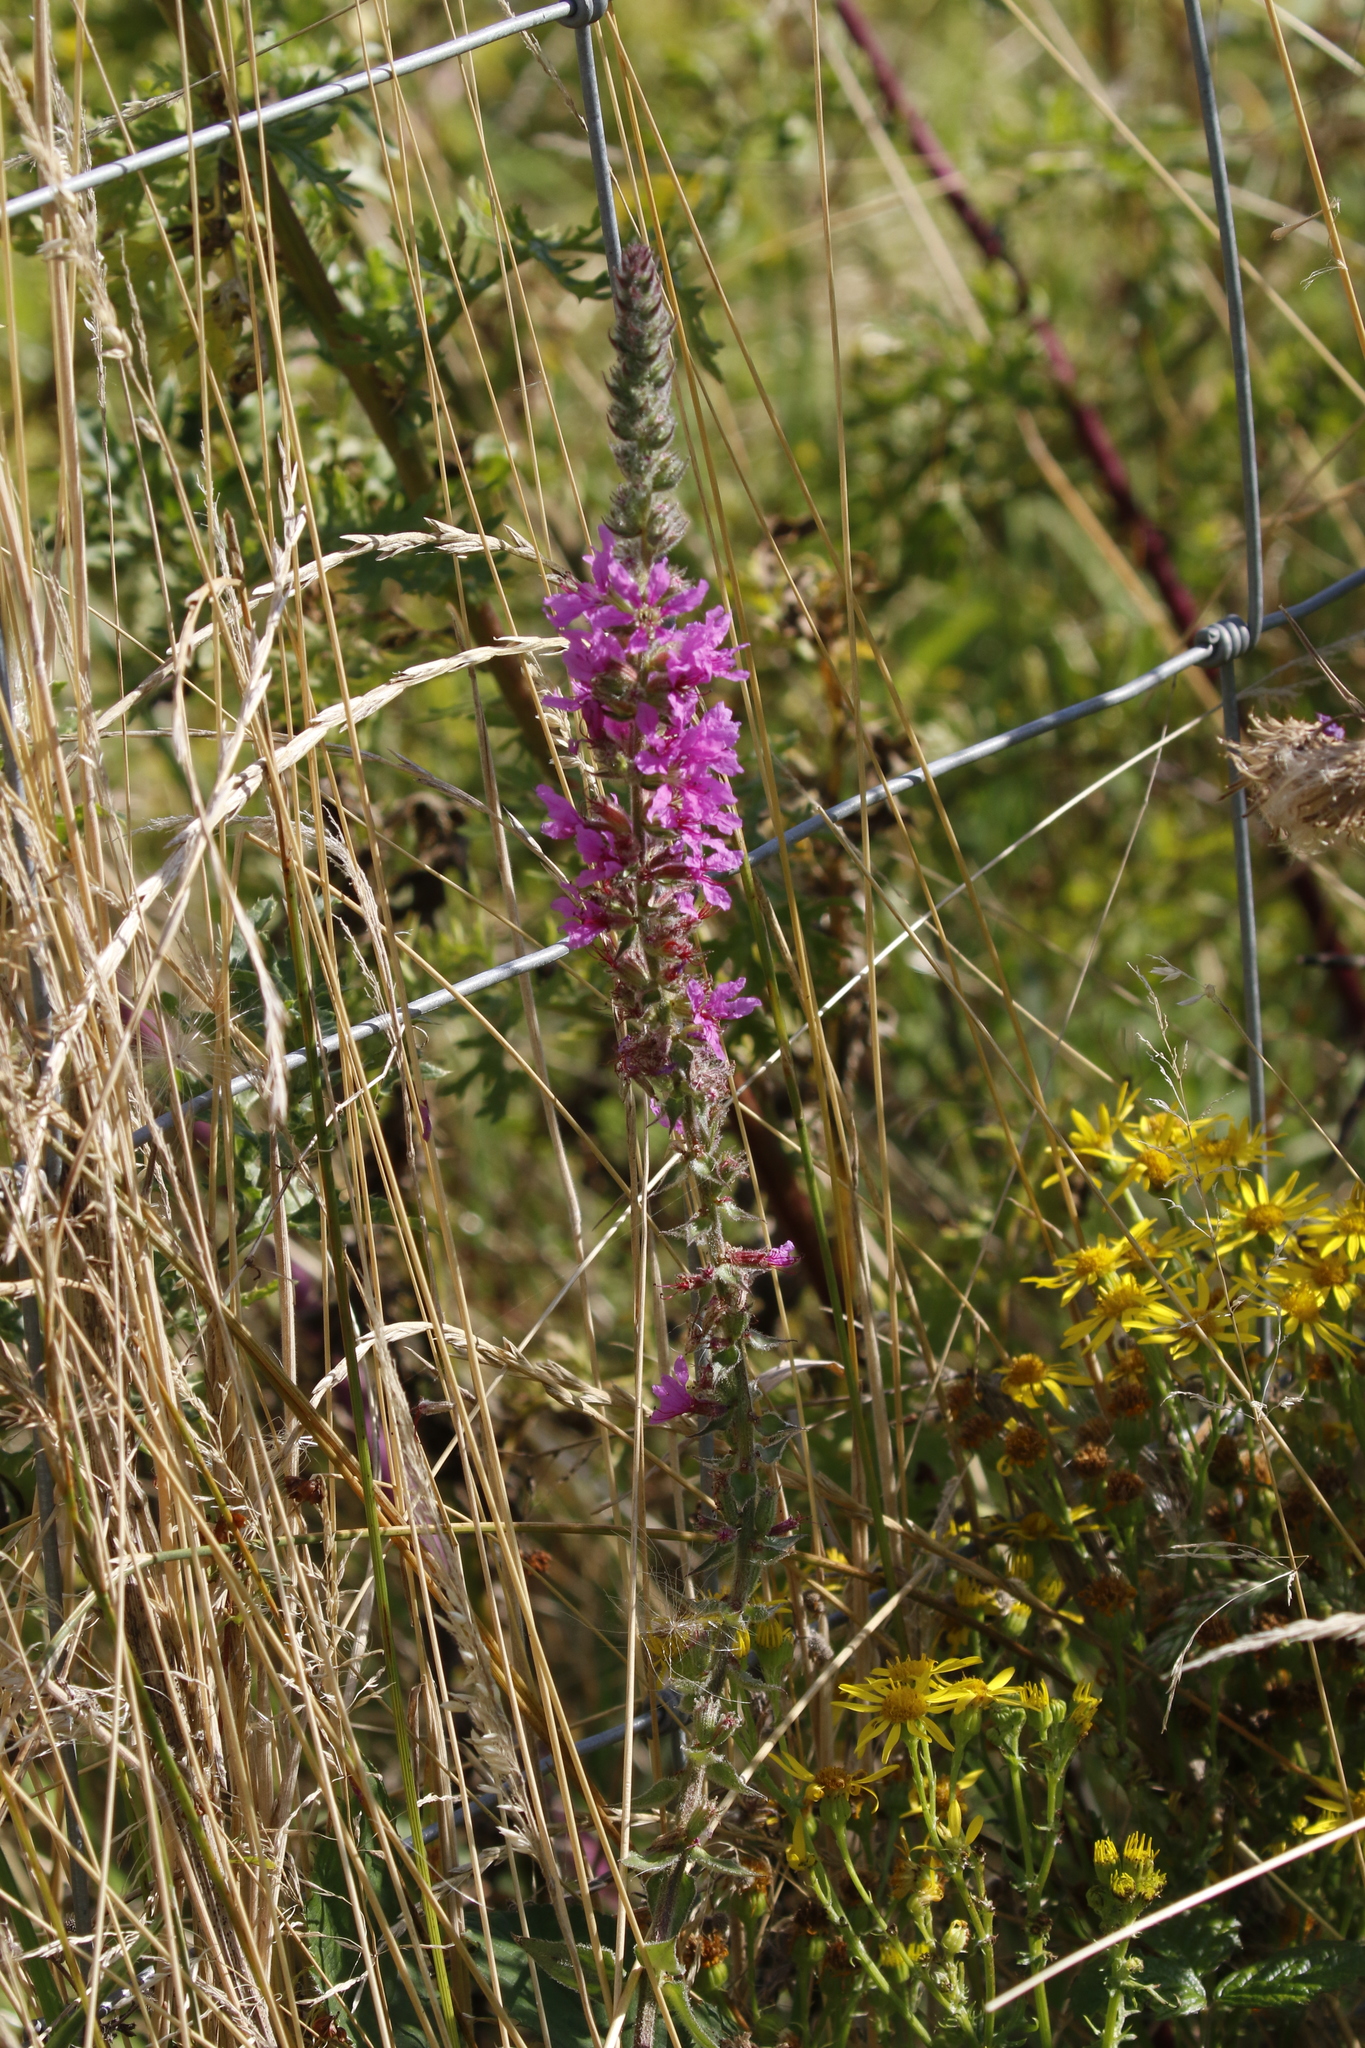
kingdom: Plantae
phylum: Tracheophyta
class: Magnoliopsida
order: Myrtales
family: Lythraceae
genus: Lythrum
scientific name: Lythrum salicaria
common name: Purple loosestrife
